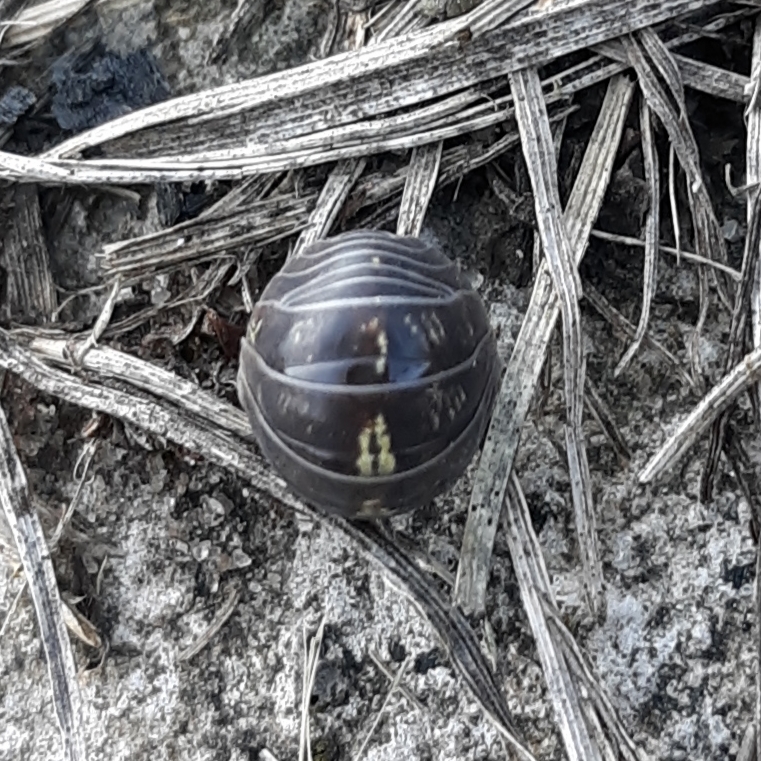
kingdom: Animalia
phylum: Arthropoda
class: Malacostraca
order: Isopoda
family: Armadillidiidae
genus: Armadillidium
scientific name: Armadillidium vulgare
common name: Common pill woodlouse
